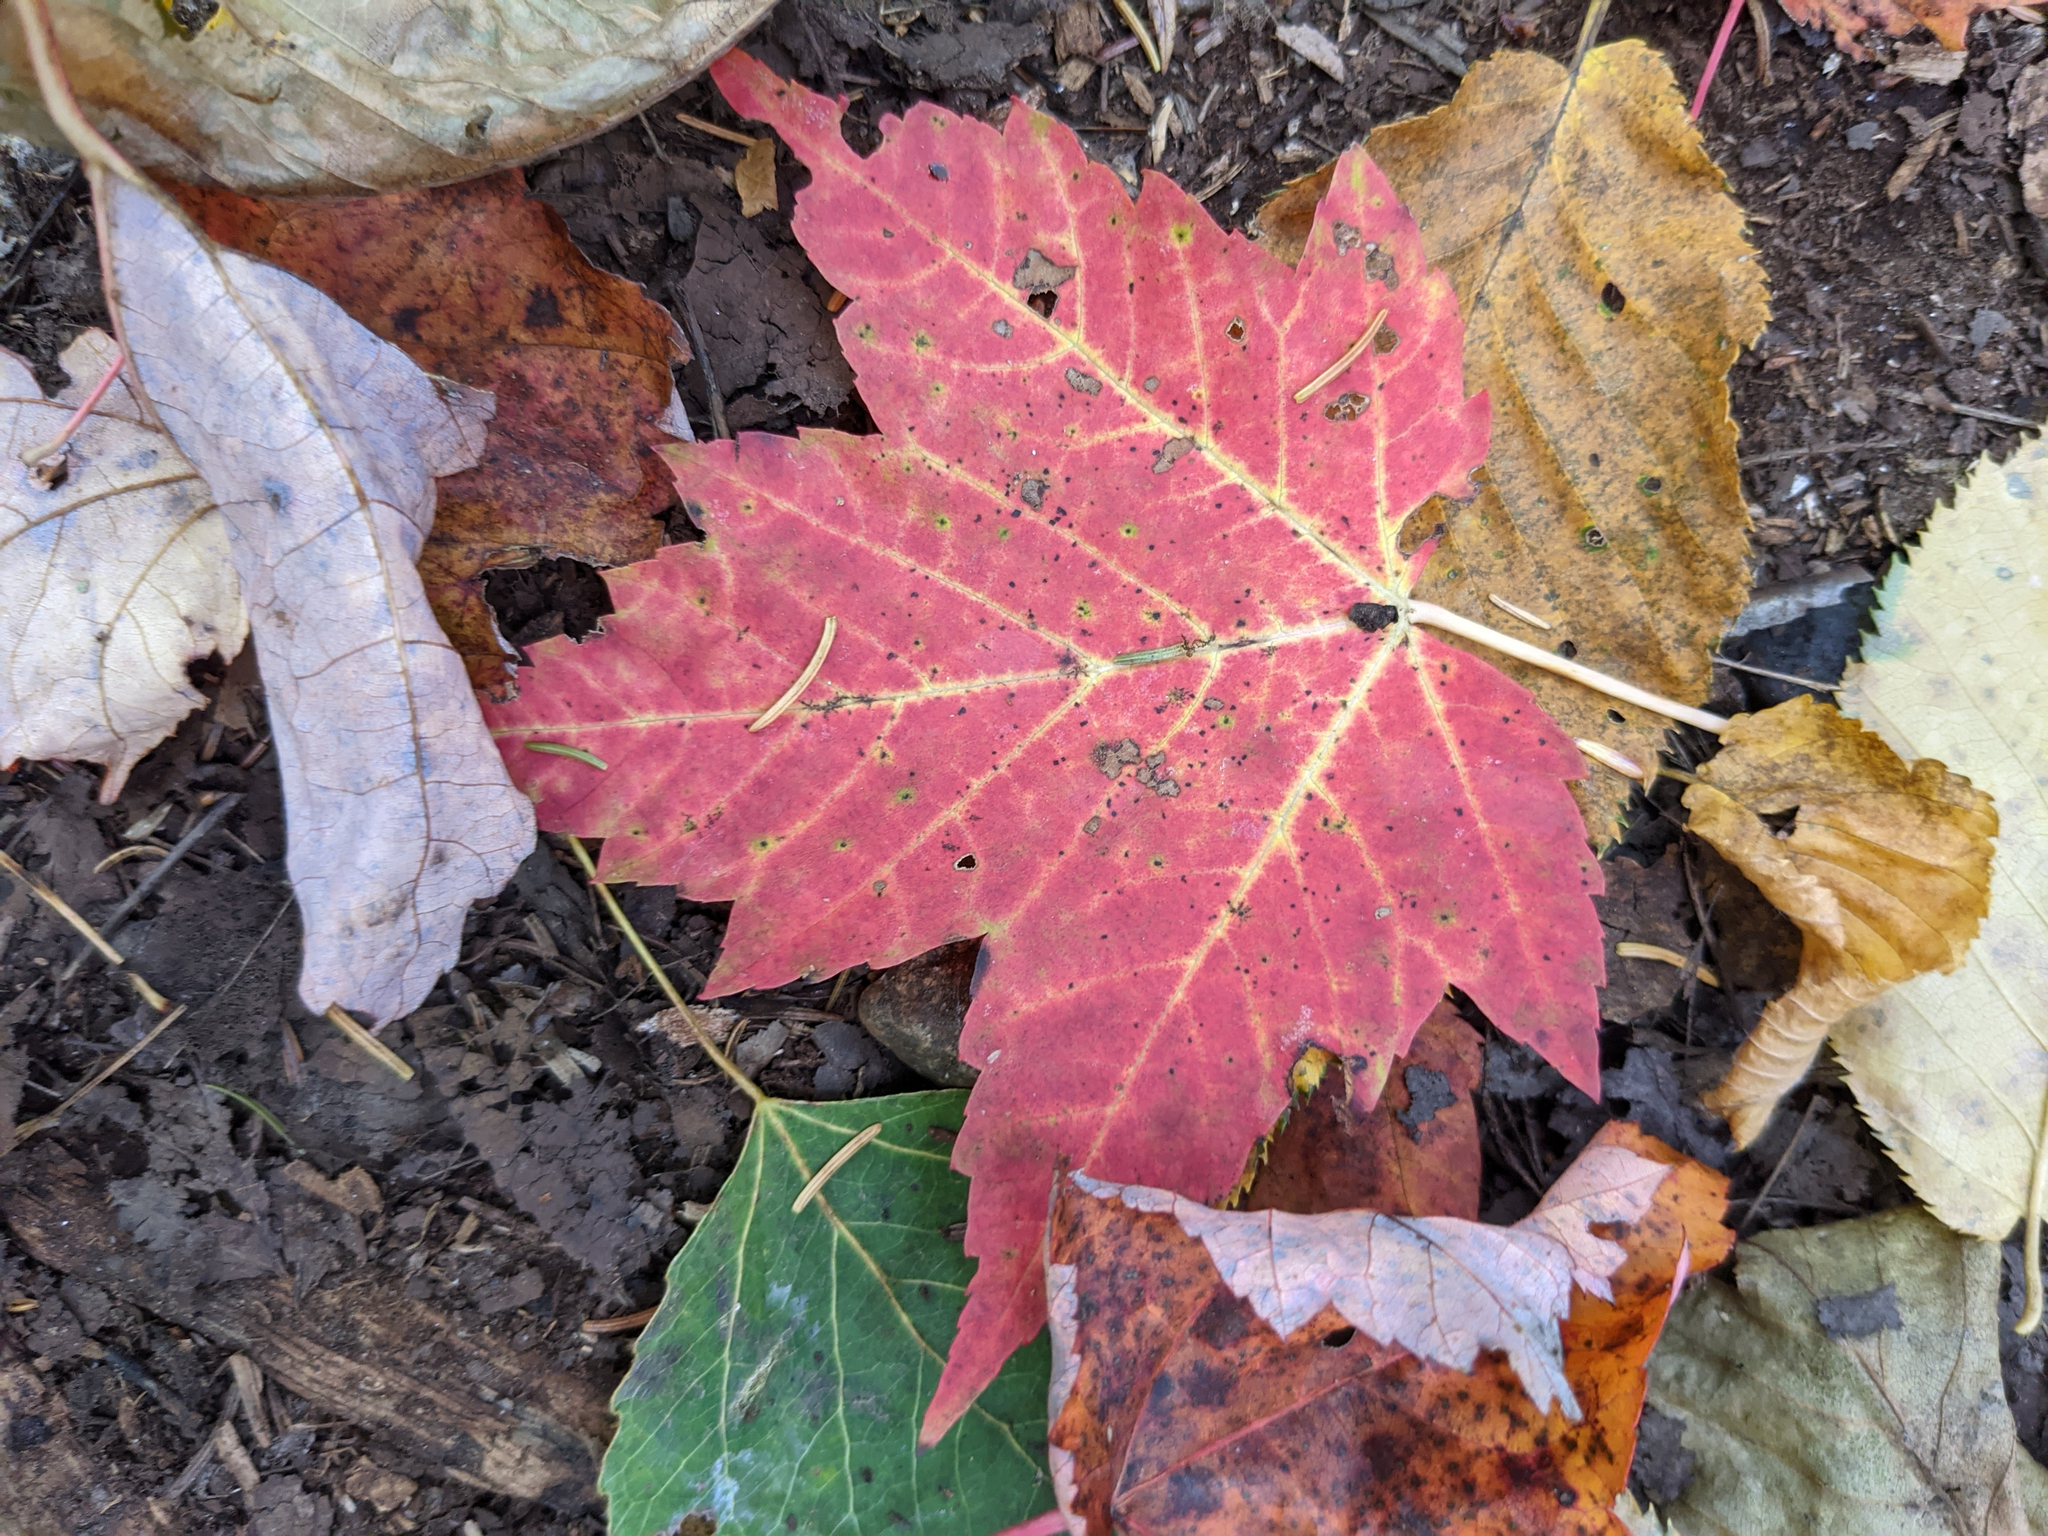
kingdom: Plantae
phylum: Tracheophyta
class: Magnoliopsida
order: Sapindales
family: Sapindaceae
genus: Acer
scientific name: Acer rubrum
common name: Red maple
